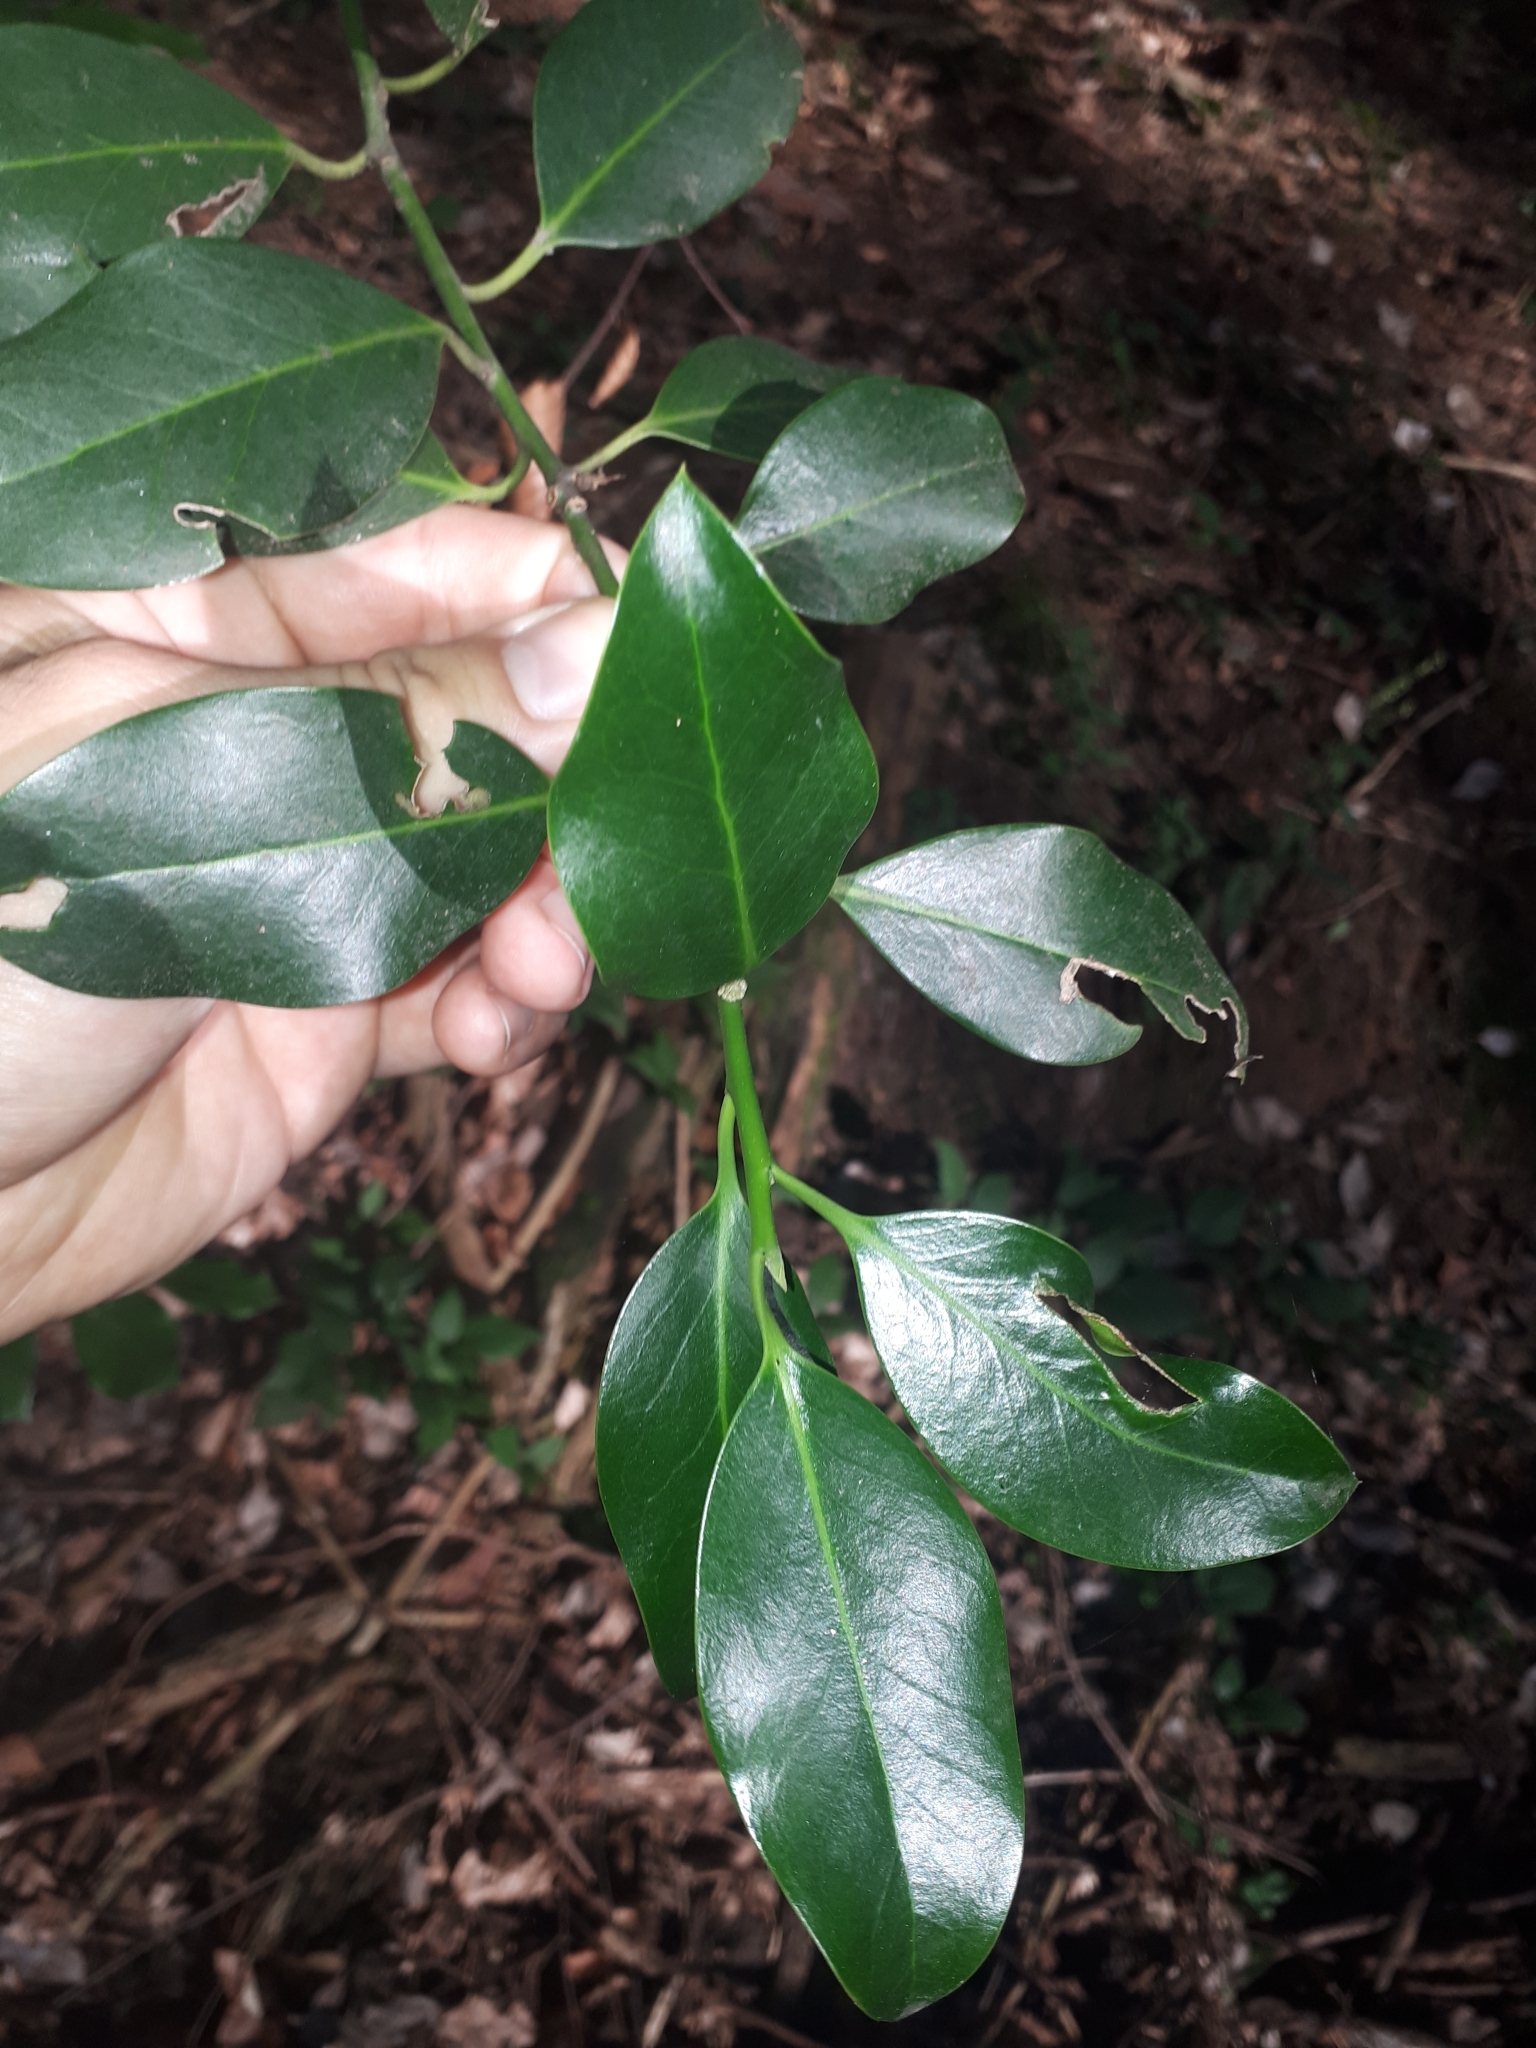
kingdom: Plantae
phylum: Tracheophyta
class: Magnoliopsida
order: Aquifoliales
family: Aquifoliaceae
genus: Ilex
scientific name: Ilex aquifolium
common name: English holly
